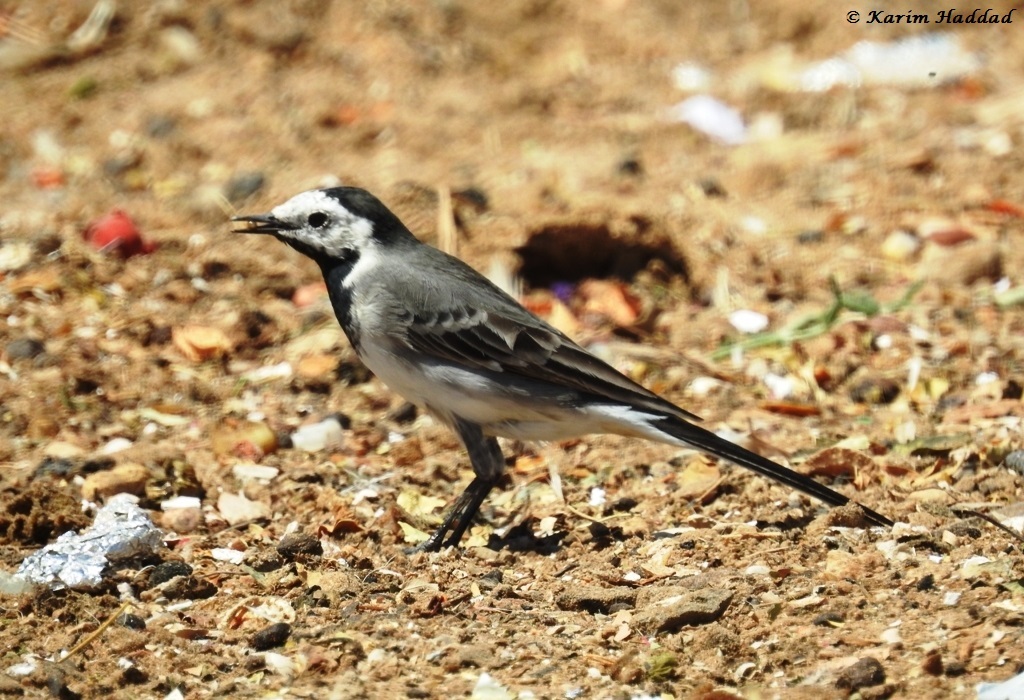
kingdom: Animalia
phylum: Chordata
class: Aves
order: Passeriformes
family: Motacillidae
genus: Motacilla
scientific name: Motacilla alba
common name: White wagtail
